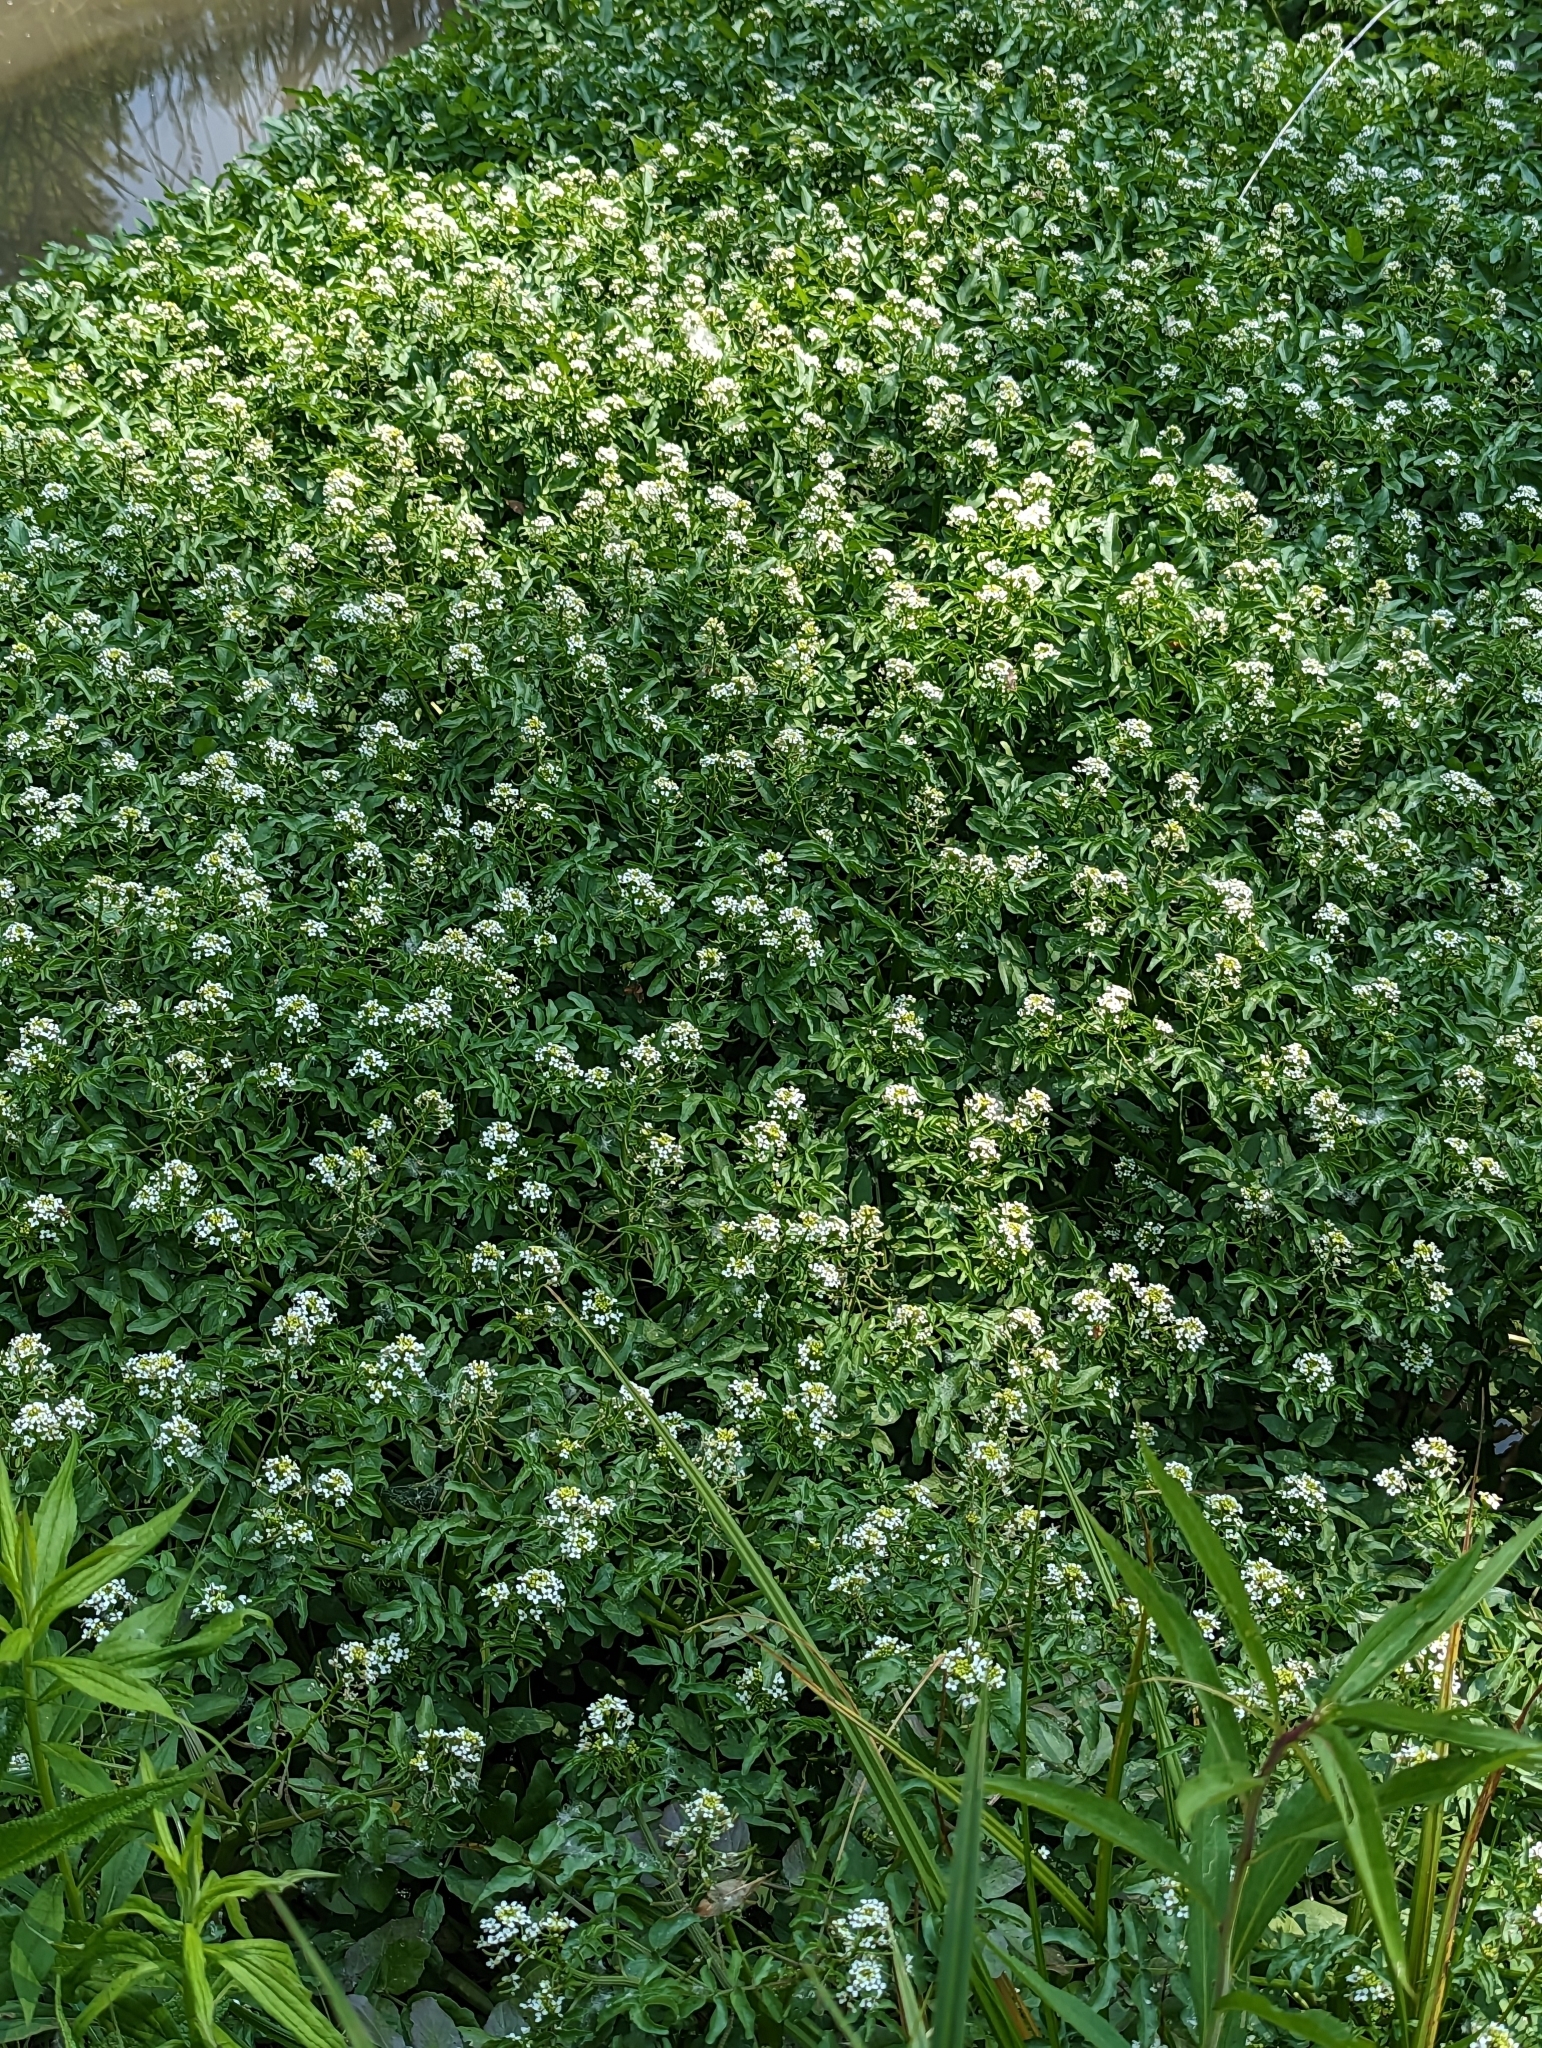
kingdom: Plantae
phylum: Tracheophyta
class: Magnoliopsida
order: Brassicales
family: Brassicaceae
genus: Nasturtium
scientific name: Nasturtium officinale
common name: Watercress
